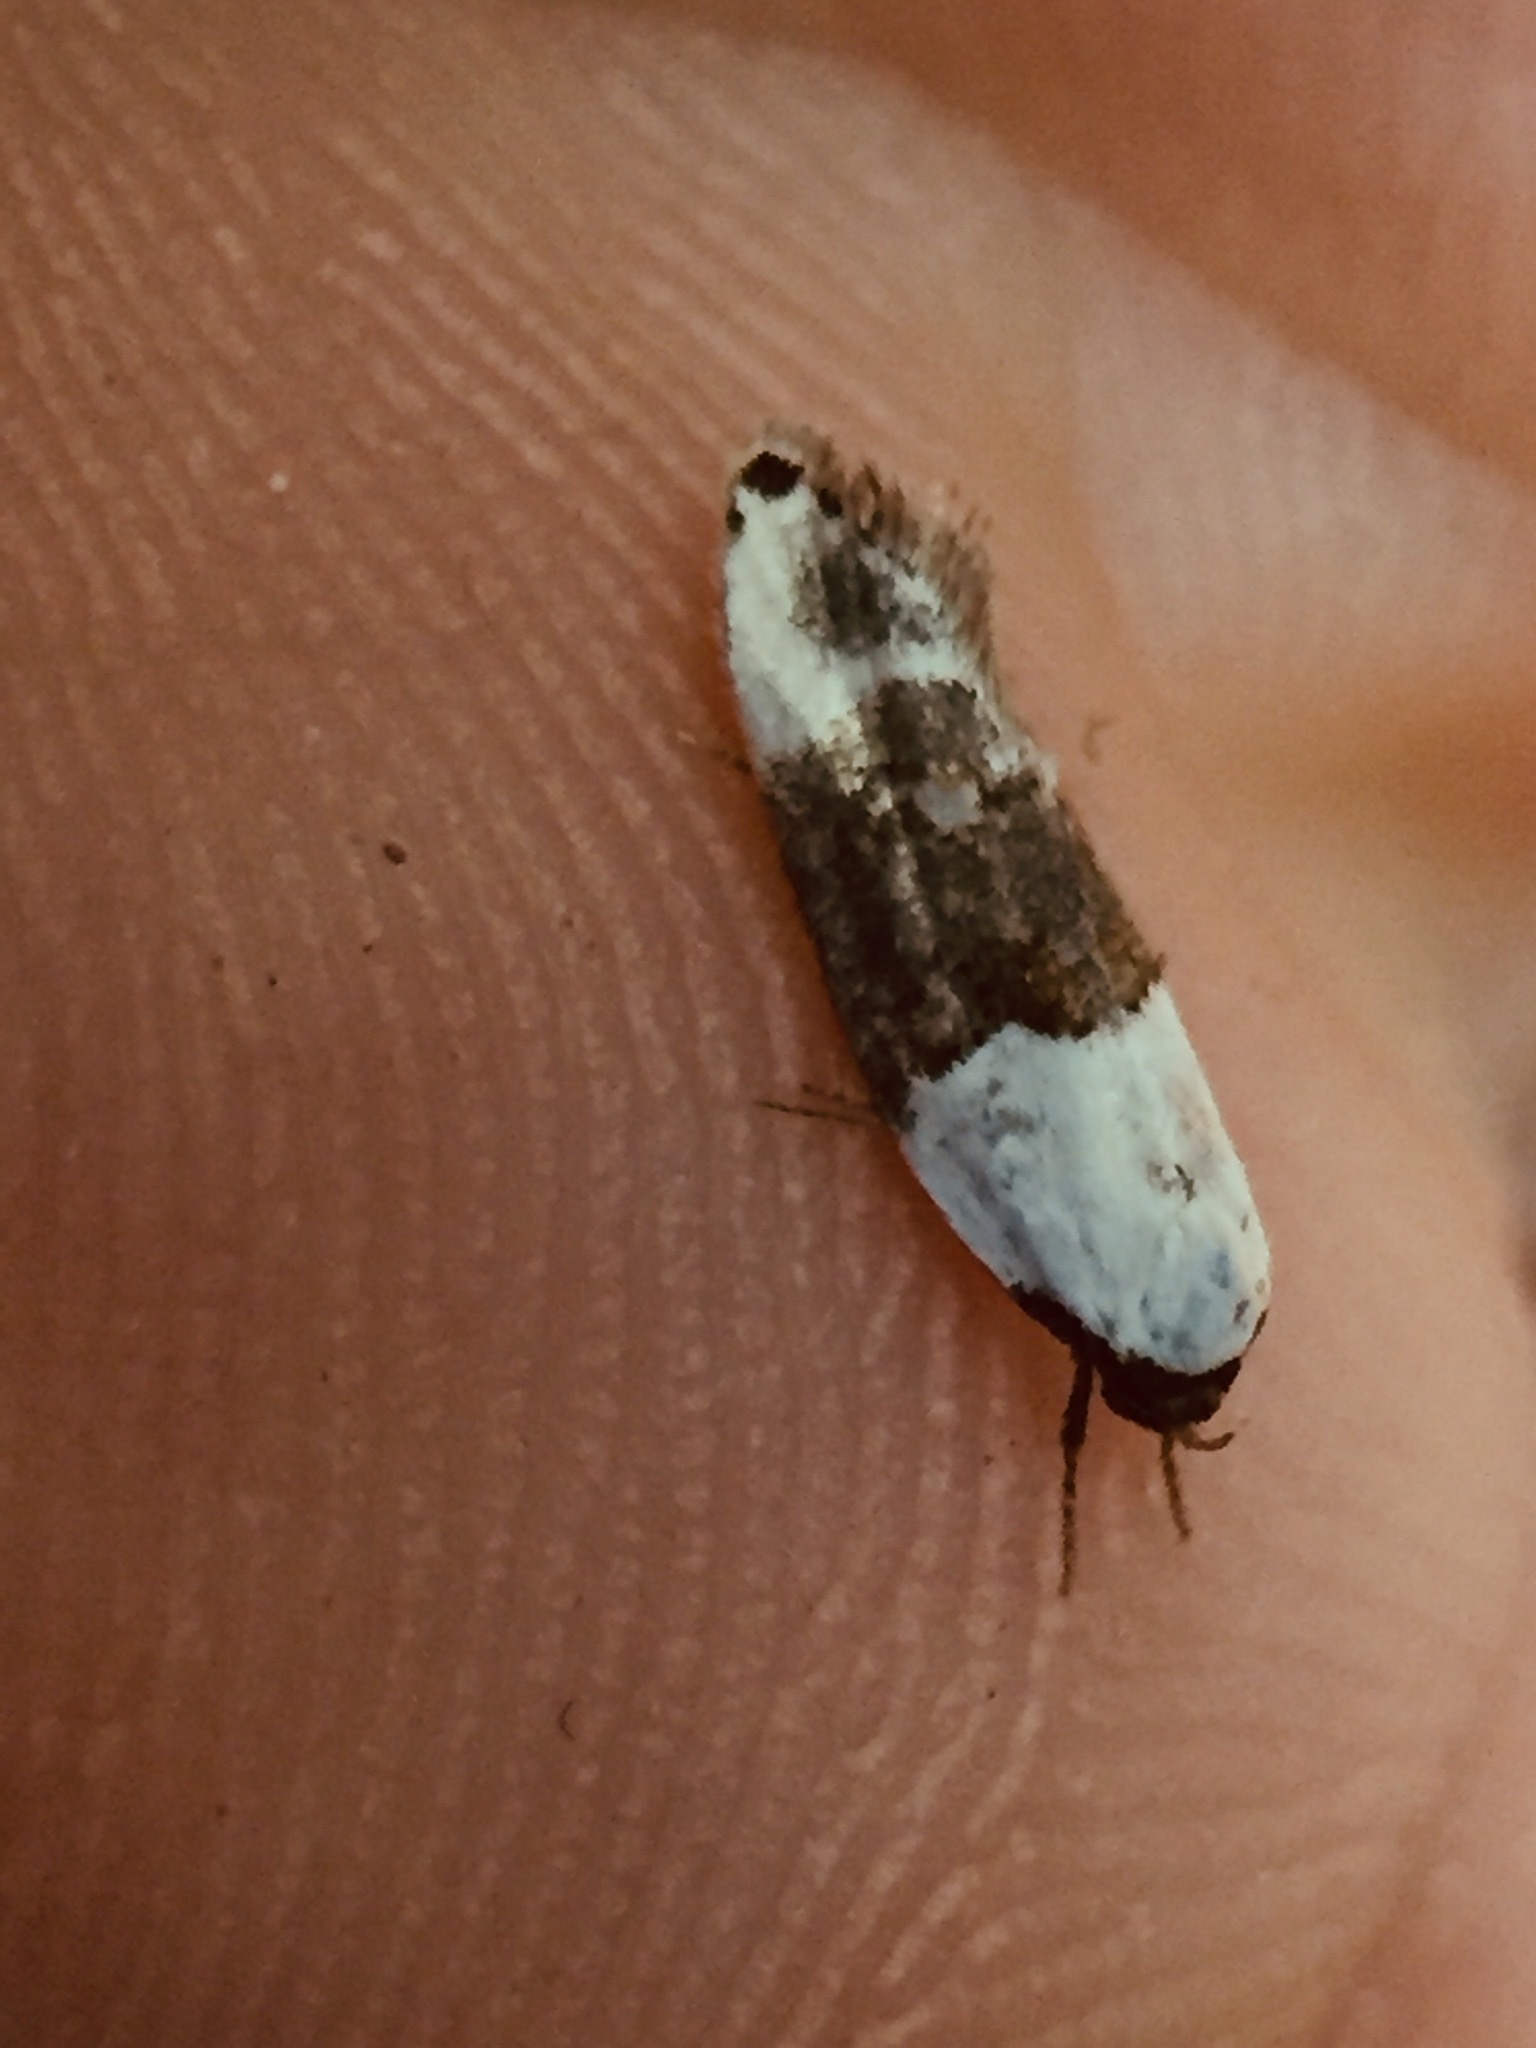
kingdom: Animalia
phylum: Arthropoda
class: Insecta
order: Lepidoptera
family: Oecophoridae
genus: Trachypepla
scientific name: Trachypepla amphileuca
